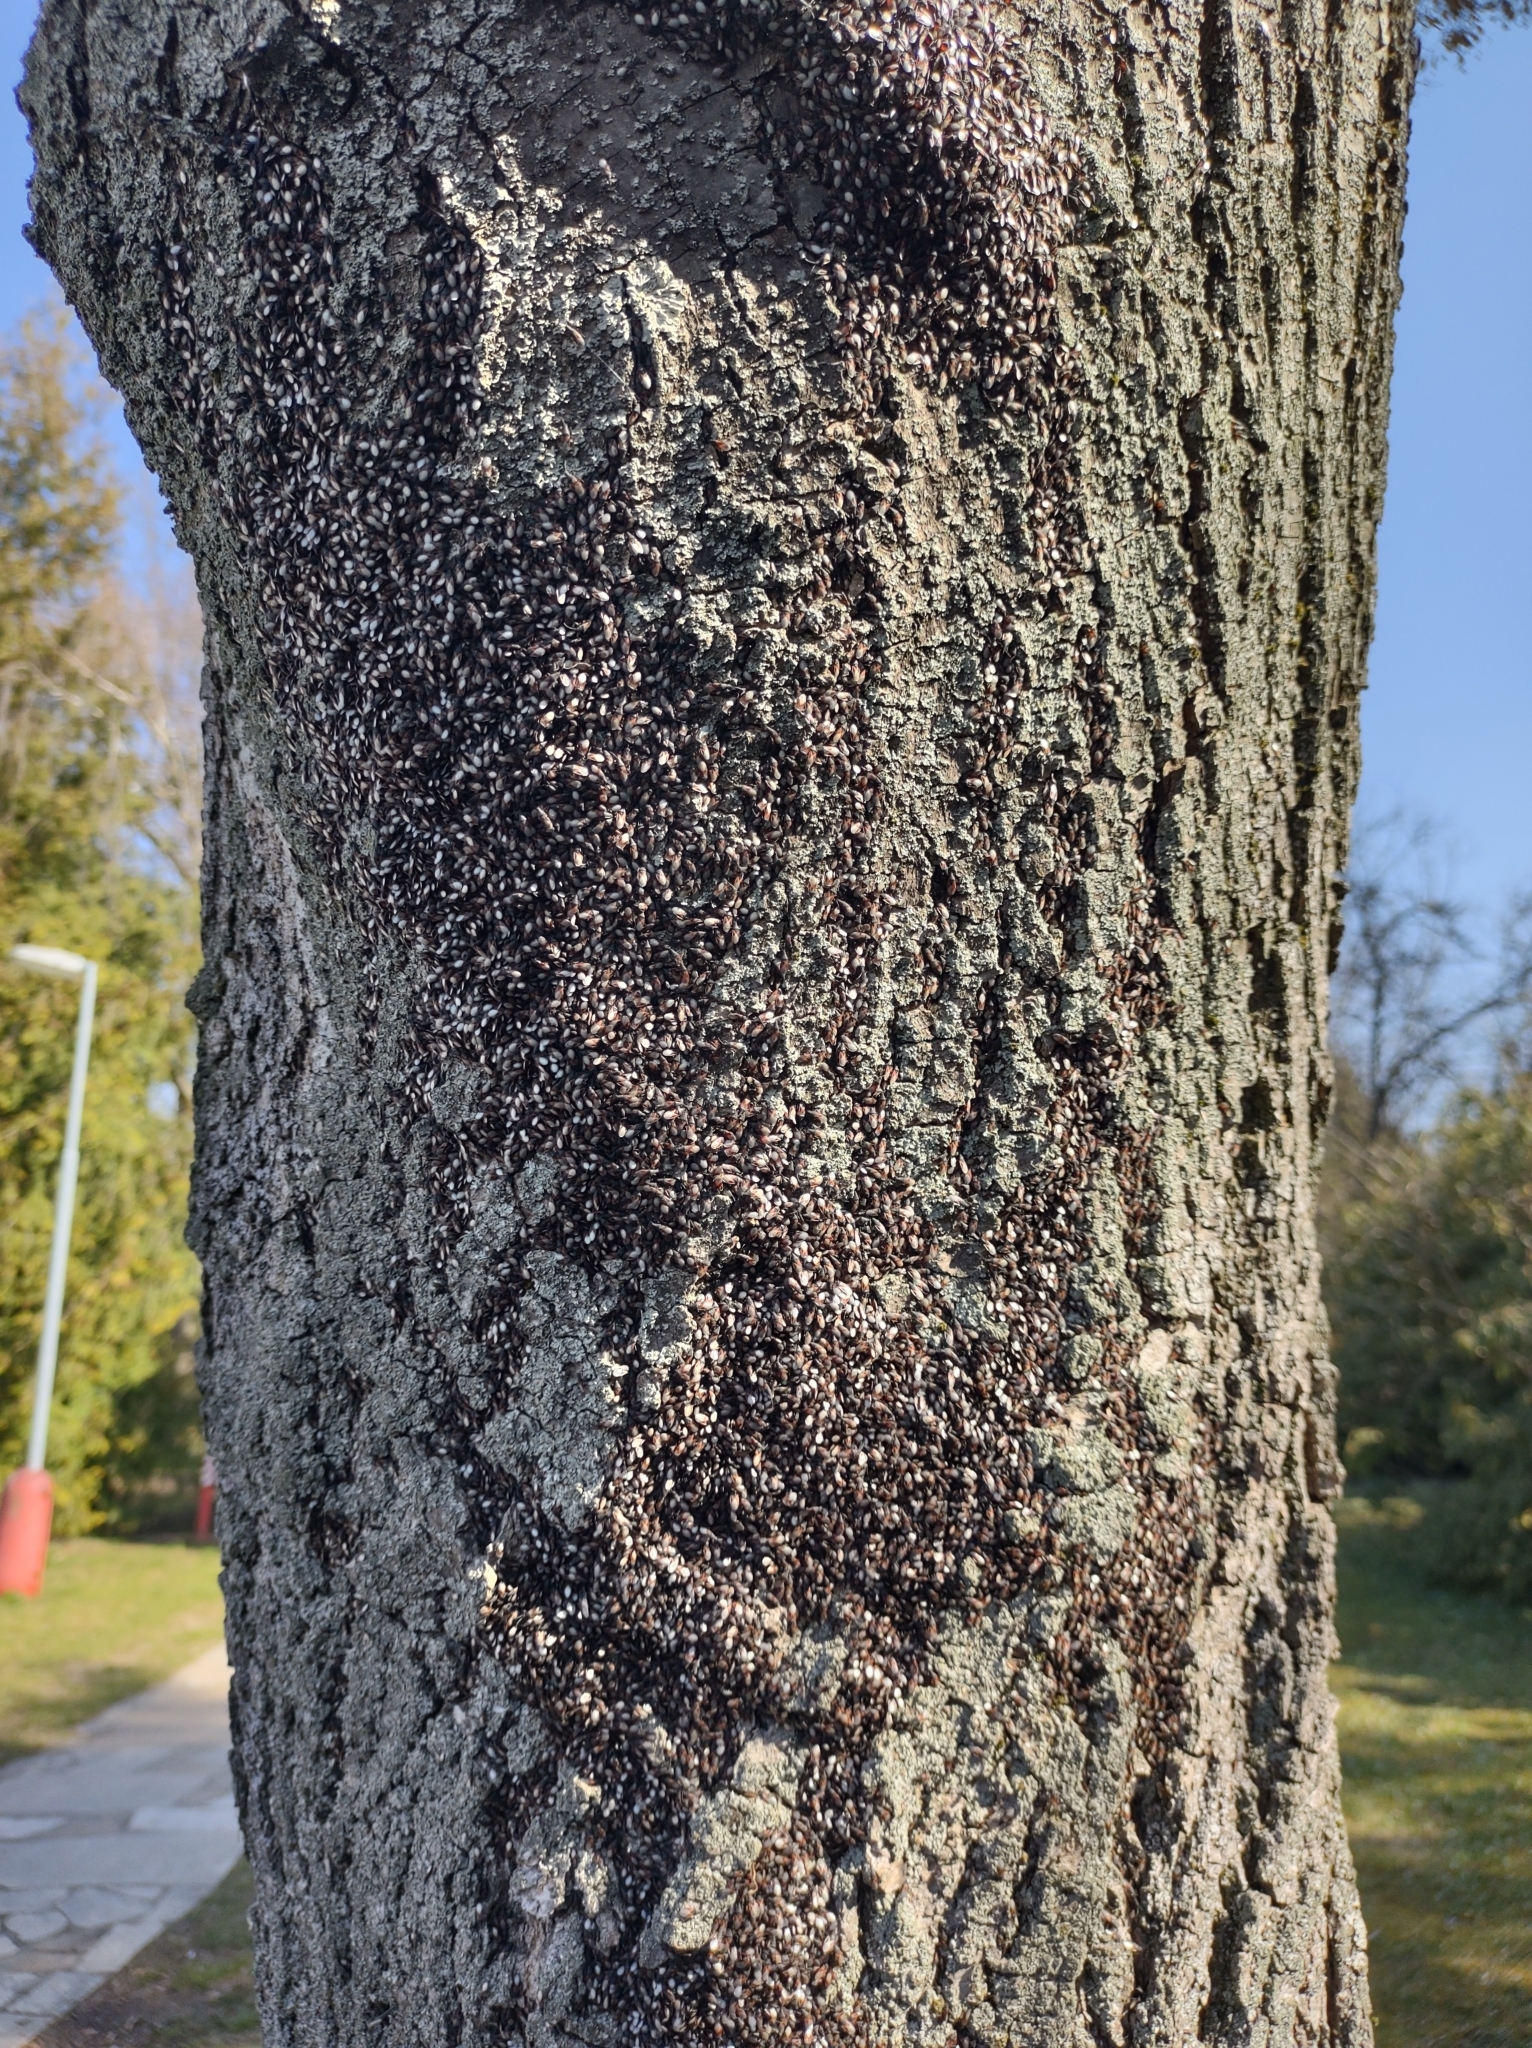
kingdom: Animalia
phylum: Arthropoda
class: Insecta
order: Hemiptera
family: Oxycarenidae
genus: Oxycarenus
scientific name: Oxycarenus lavaterae
